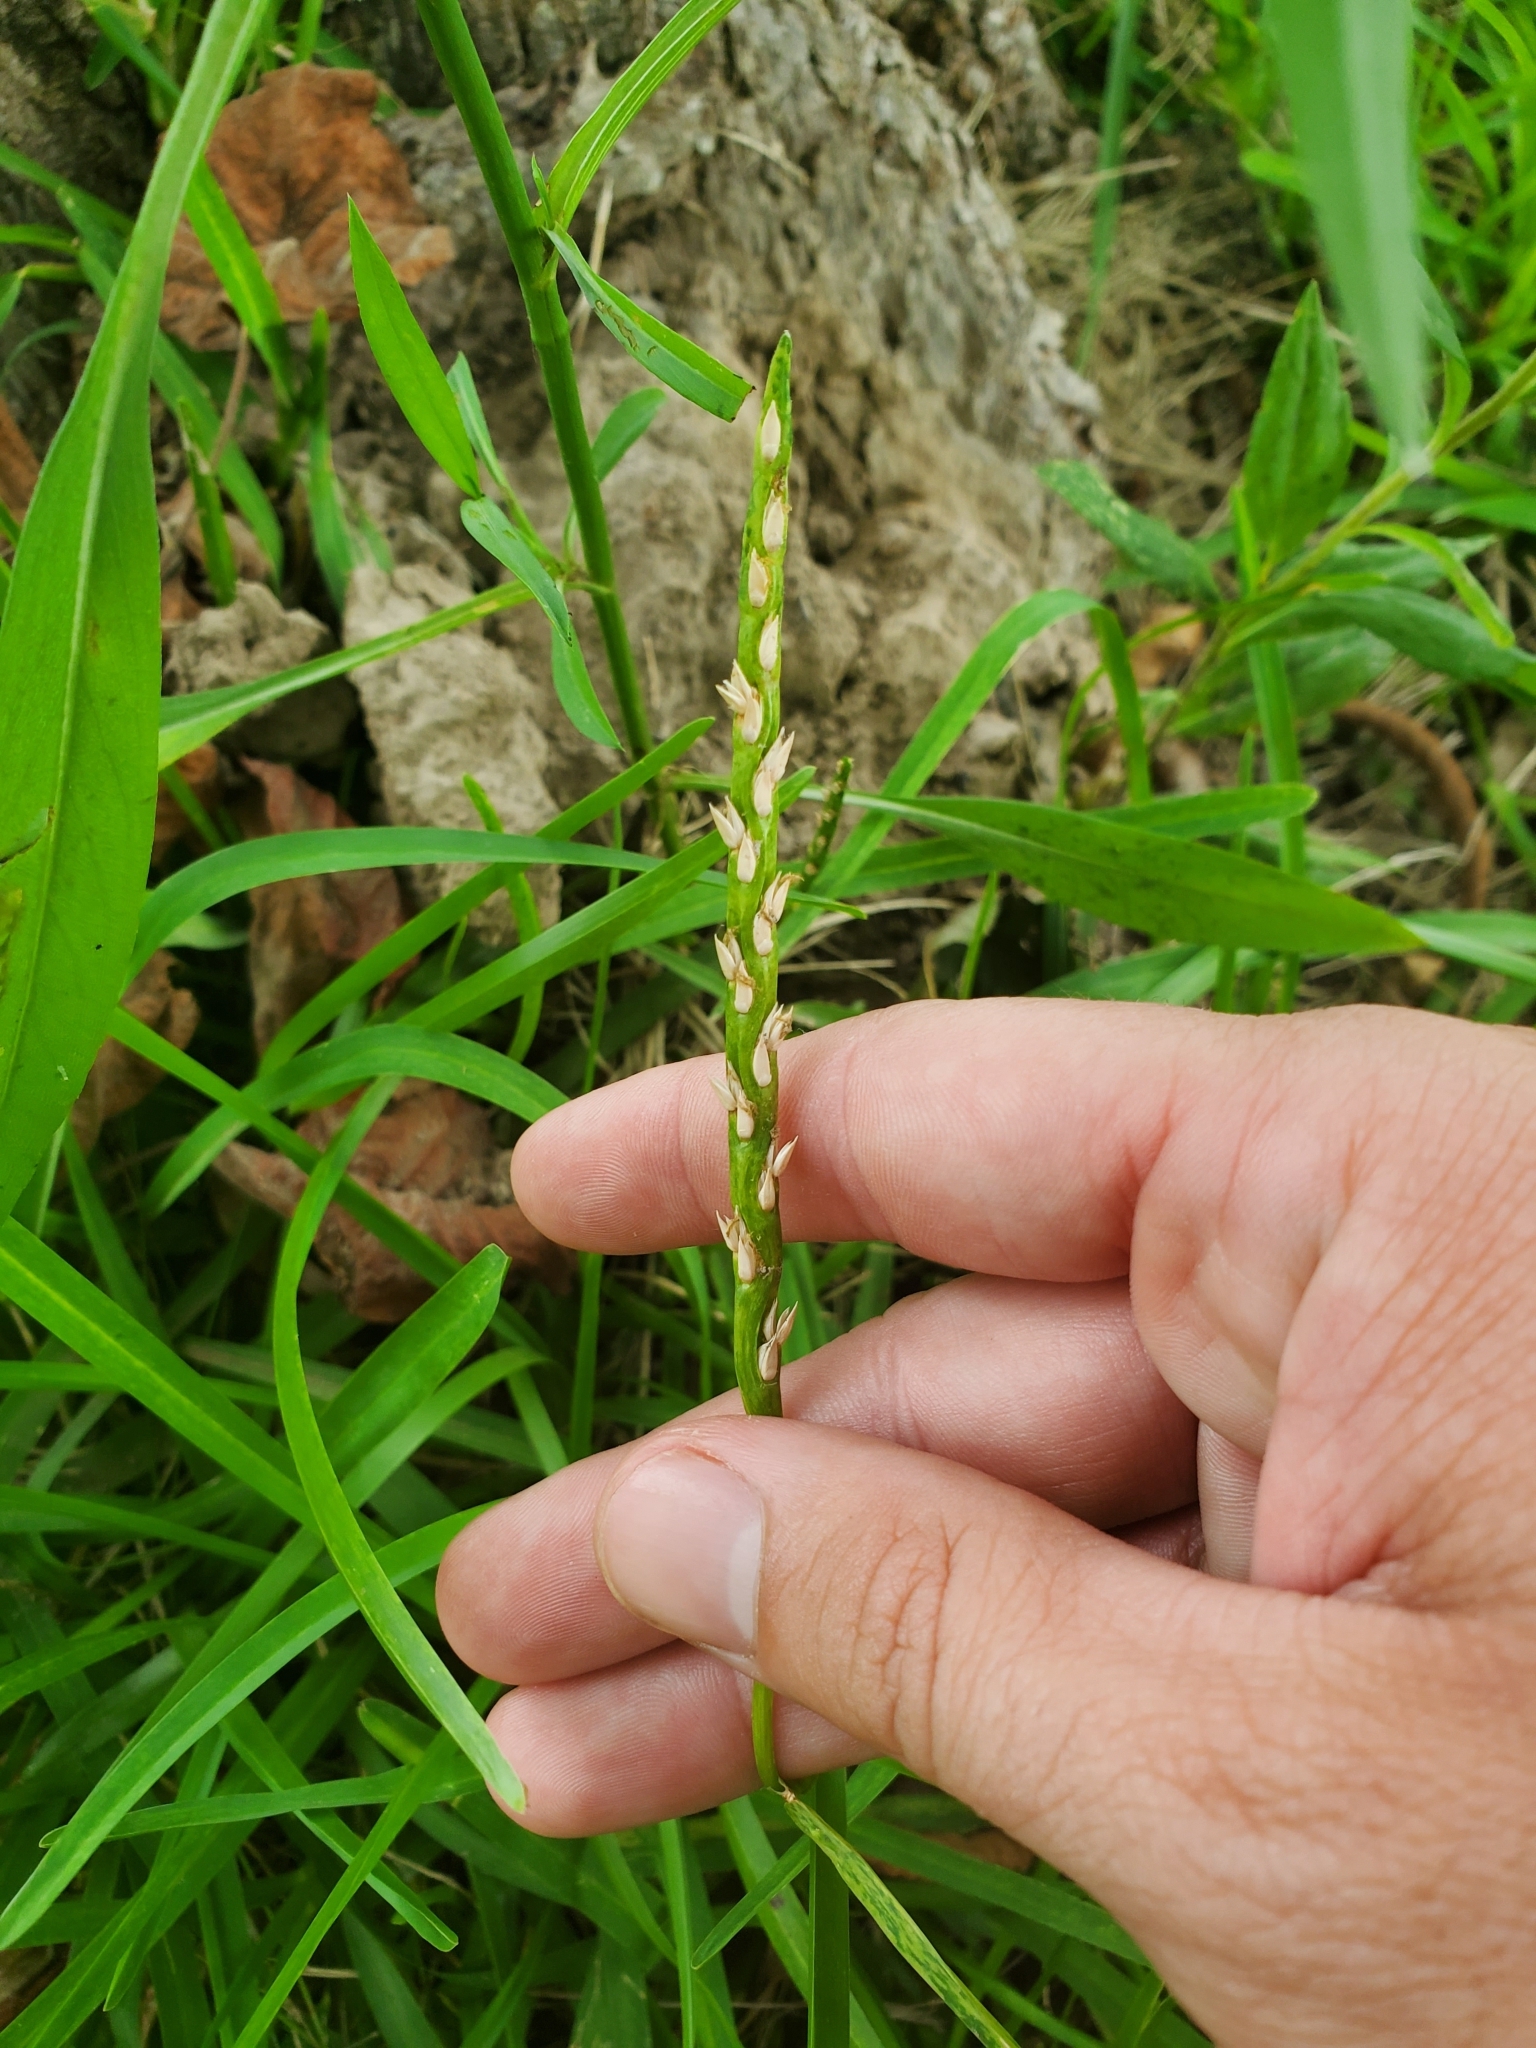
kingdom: Plantae
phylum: Tracheophyta
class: Liliopsida
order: Poales
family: Poaceae
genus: Stenotaphrum
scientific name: Stenotaphrum secundatum
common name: St. augustine grass
